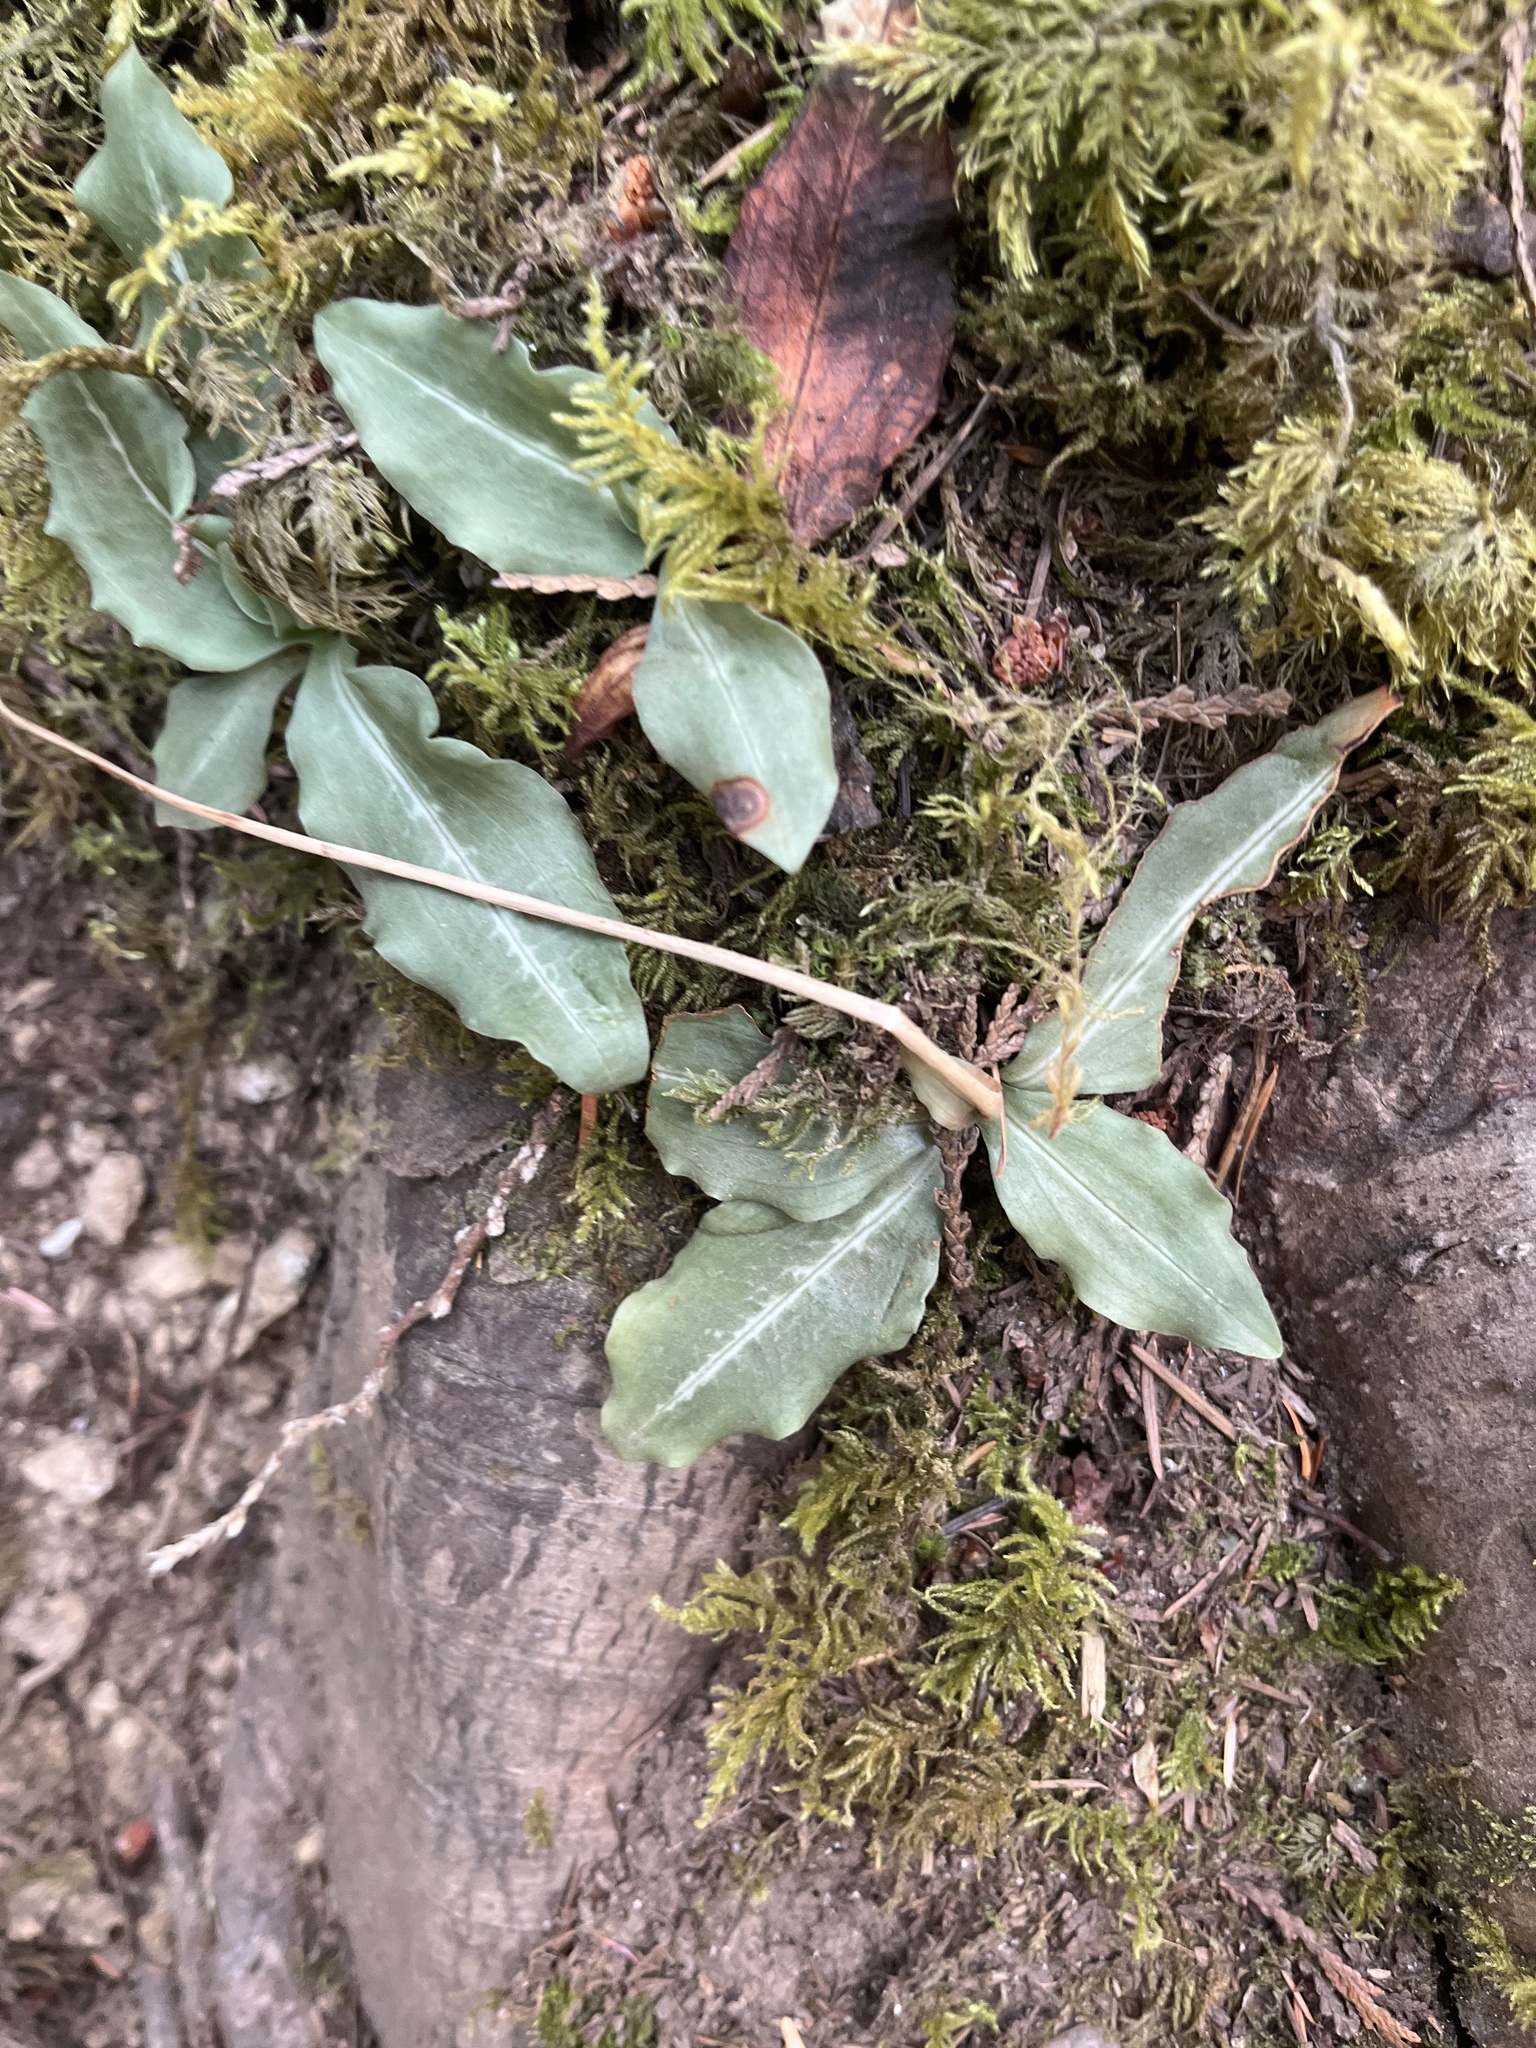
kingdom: Plantae
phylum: Tracheophyta
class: Liliopsida
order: Asparagales
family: Orchidaceae
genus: Goodyera
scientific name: Goodyera oblongifolia
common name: Giant rattlesnake-plantain
